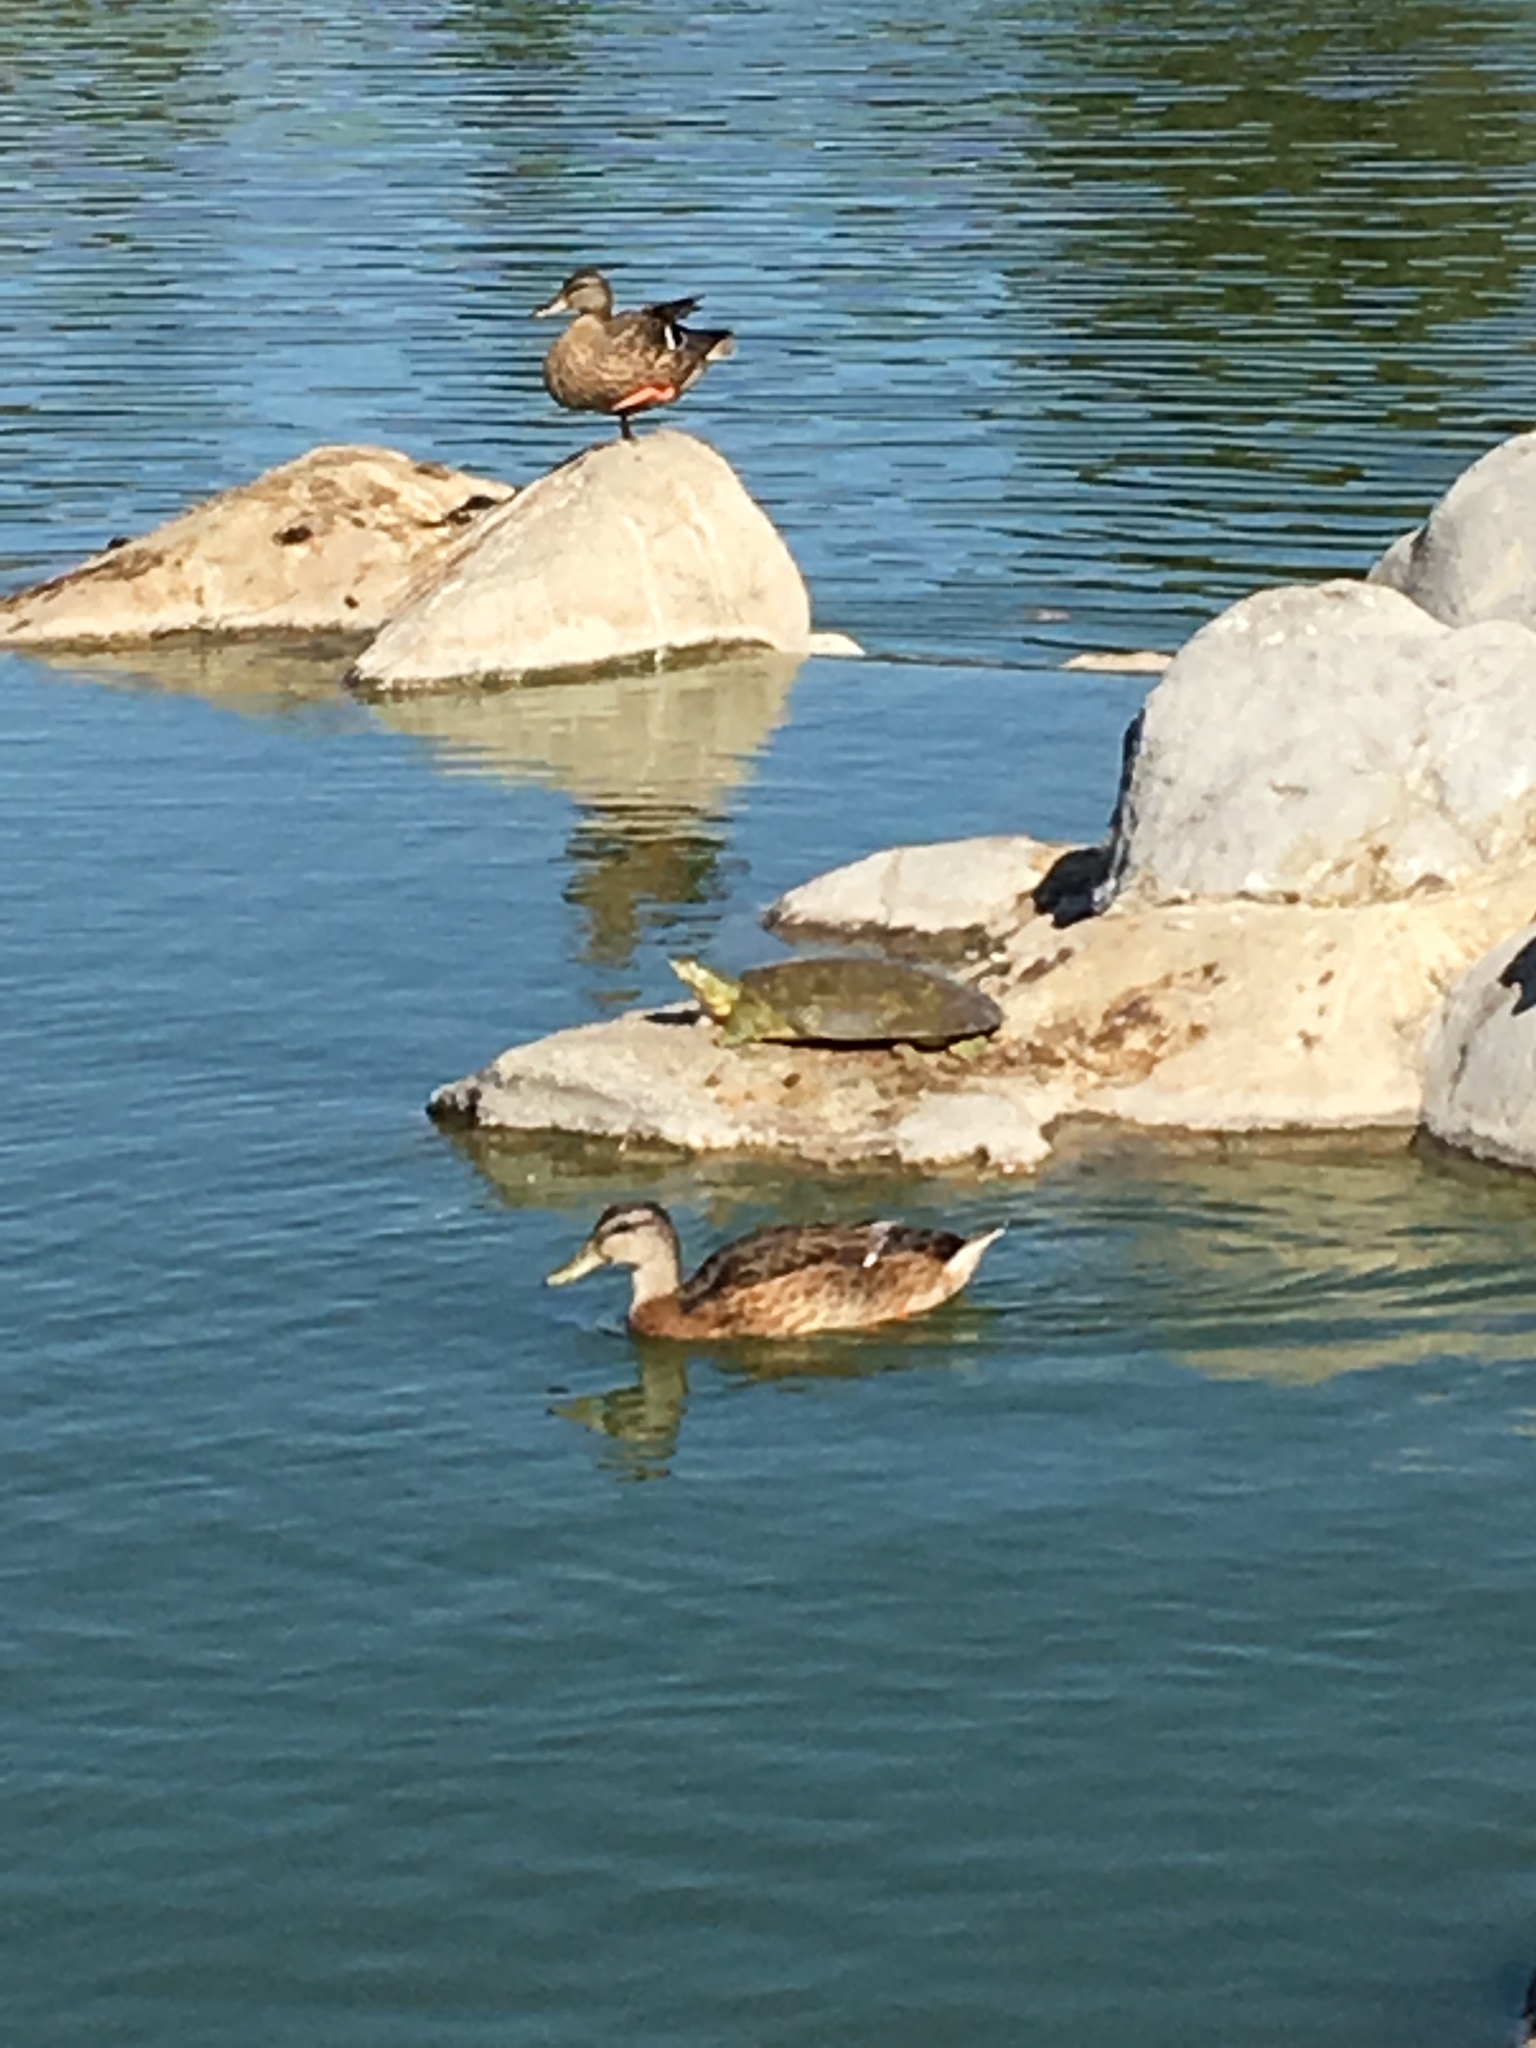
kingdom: Animalia
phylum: Chordata
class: Testudines
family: Trionychidae
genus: Apalone
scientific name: Apalone spinifera
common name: Spiny softshell turtle
